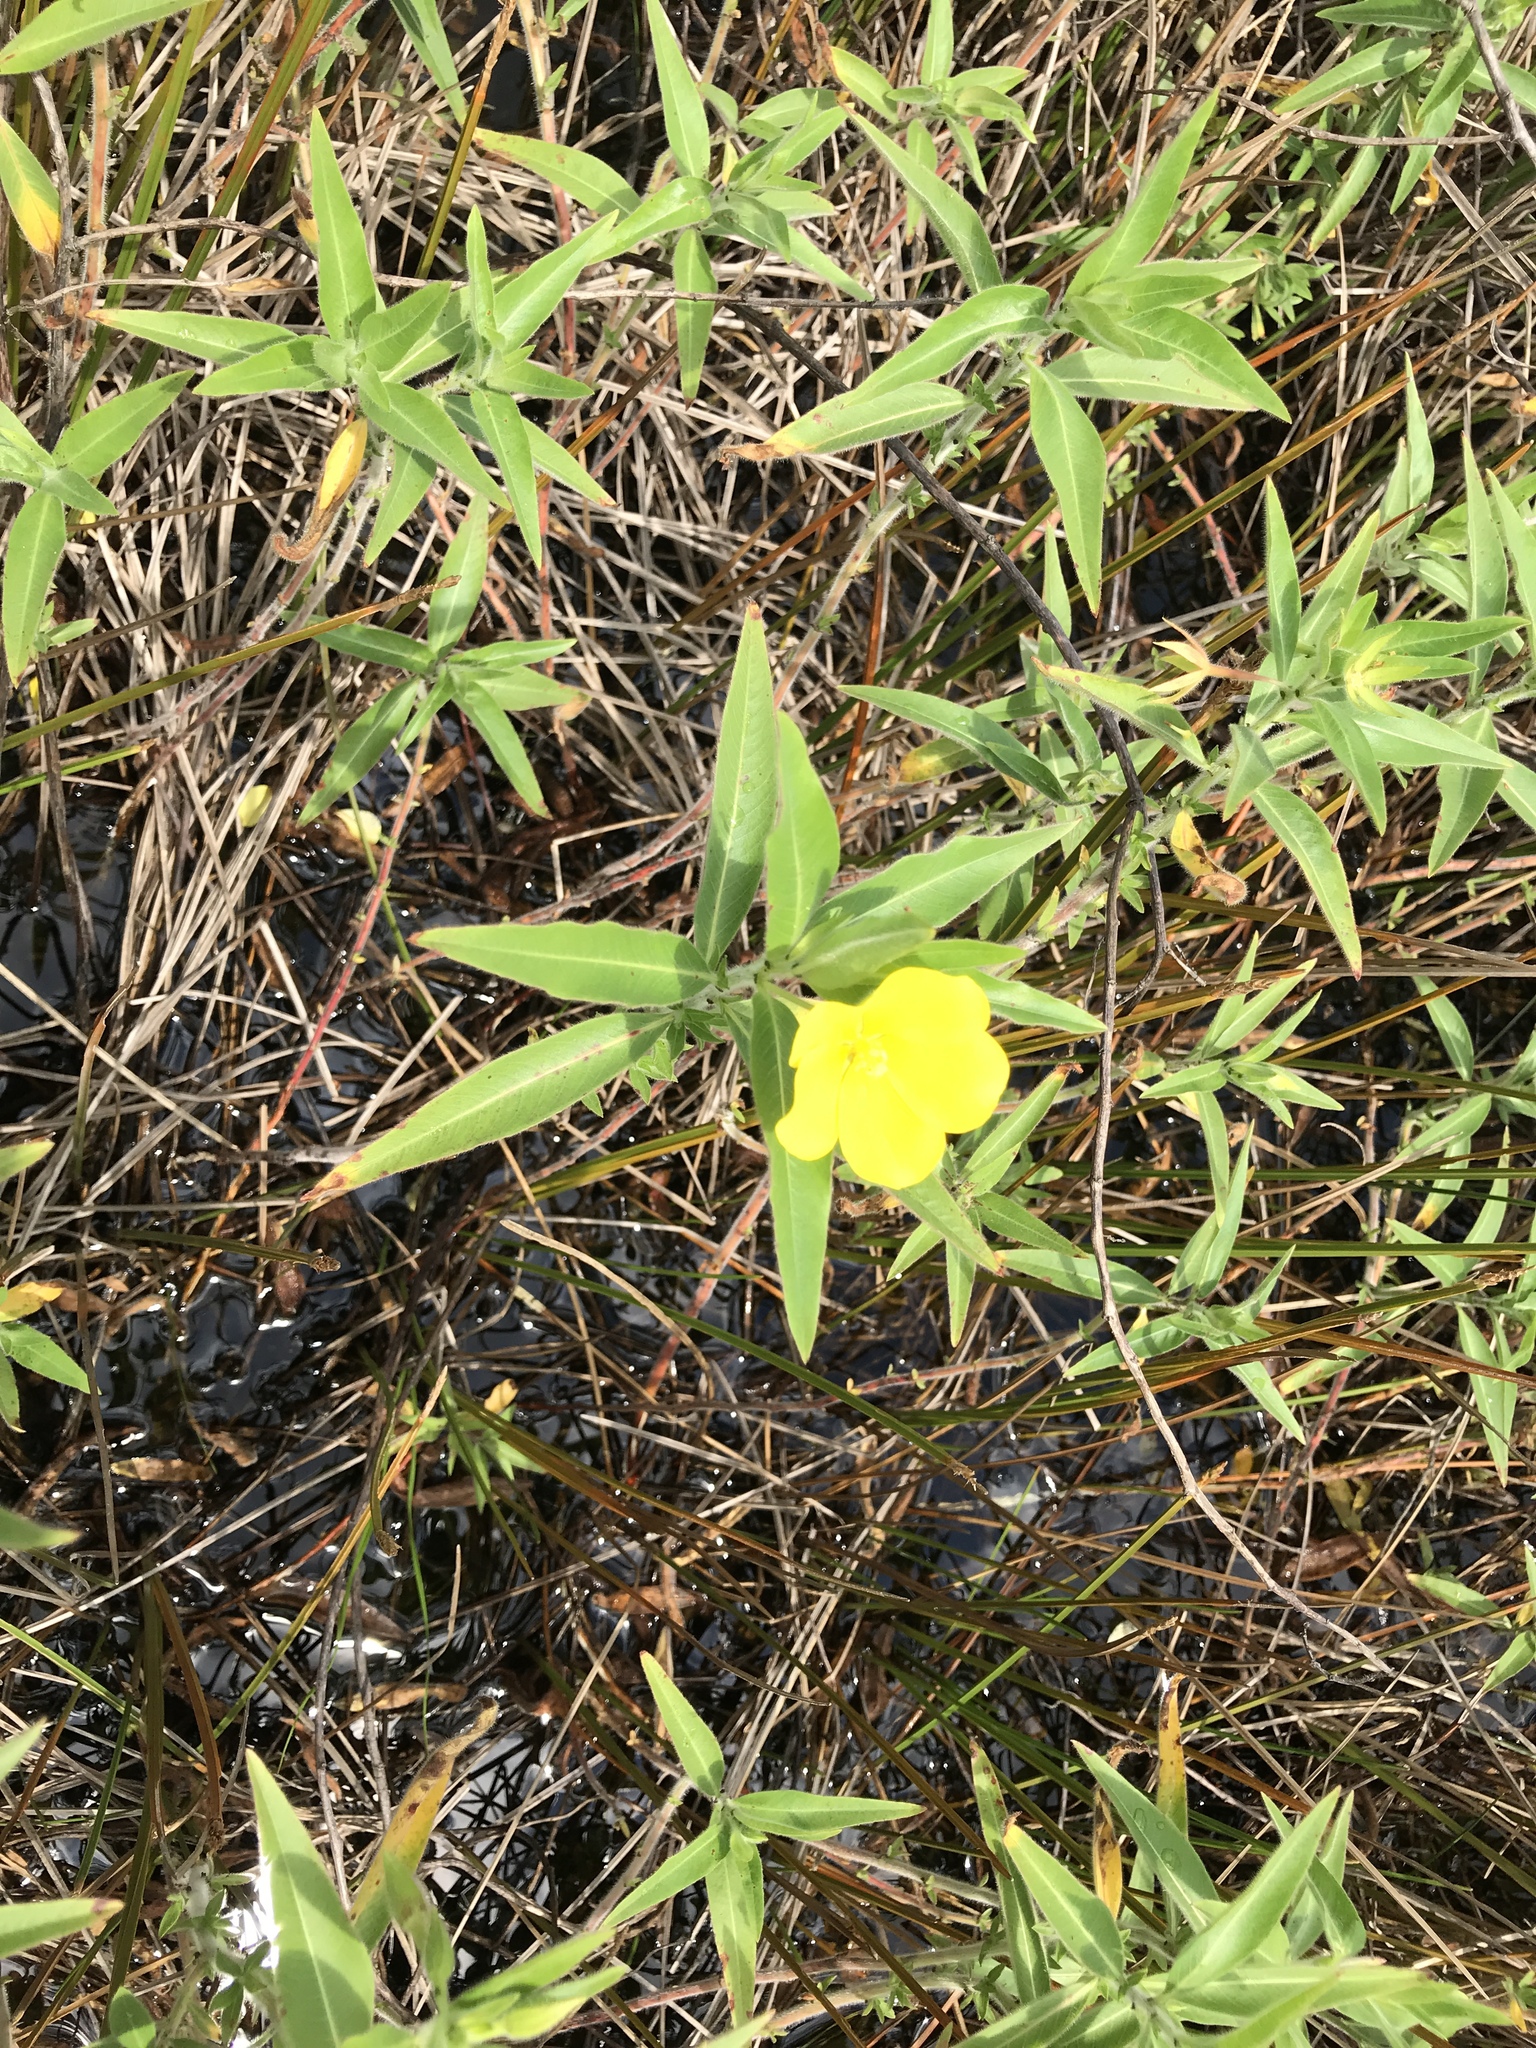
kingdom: Plantae
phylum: Tracheophyta
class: Magnoliopsida
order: Myrtales
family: Onagraceae
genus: Ludwigia
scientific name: Ludwigia leptocarpa
